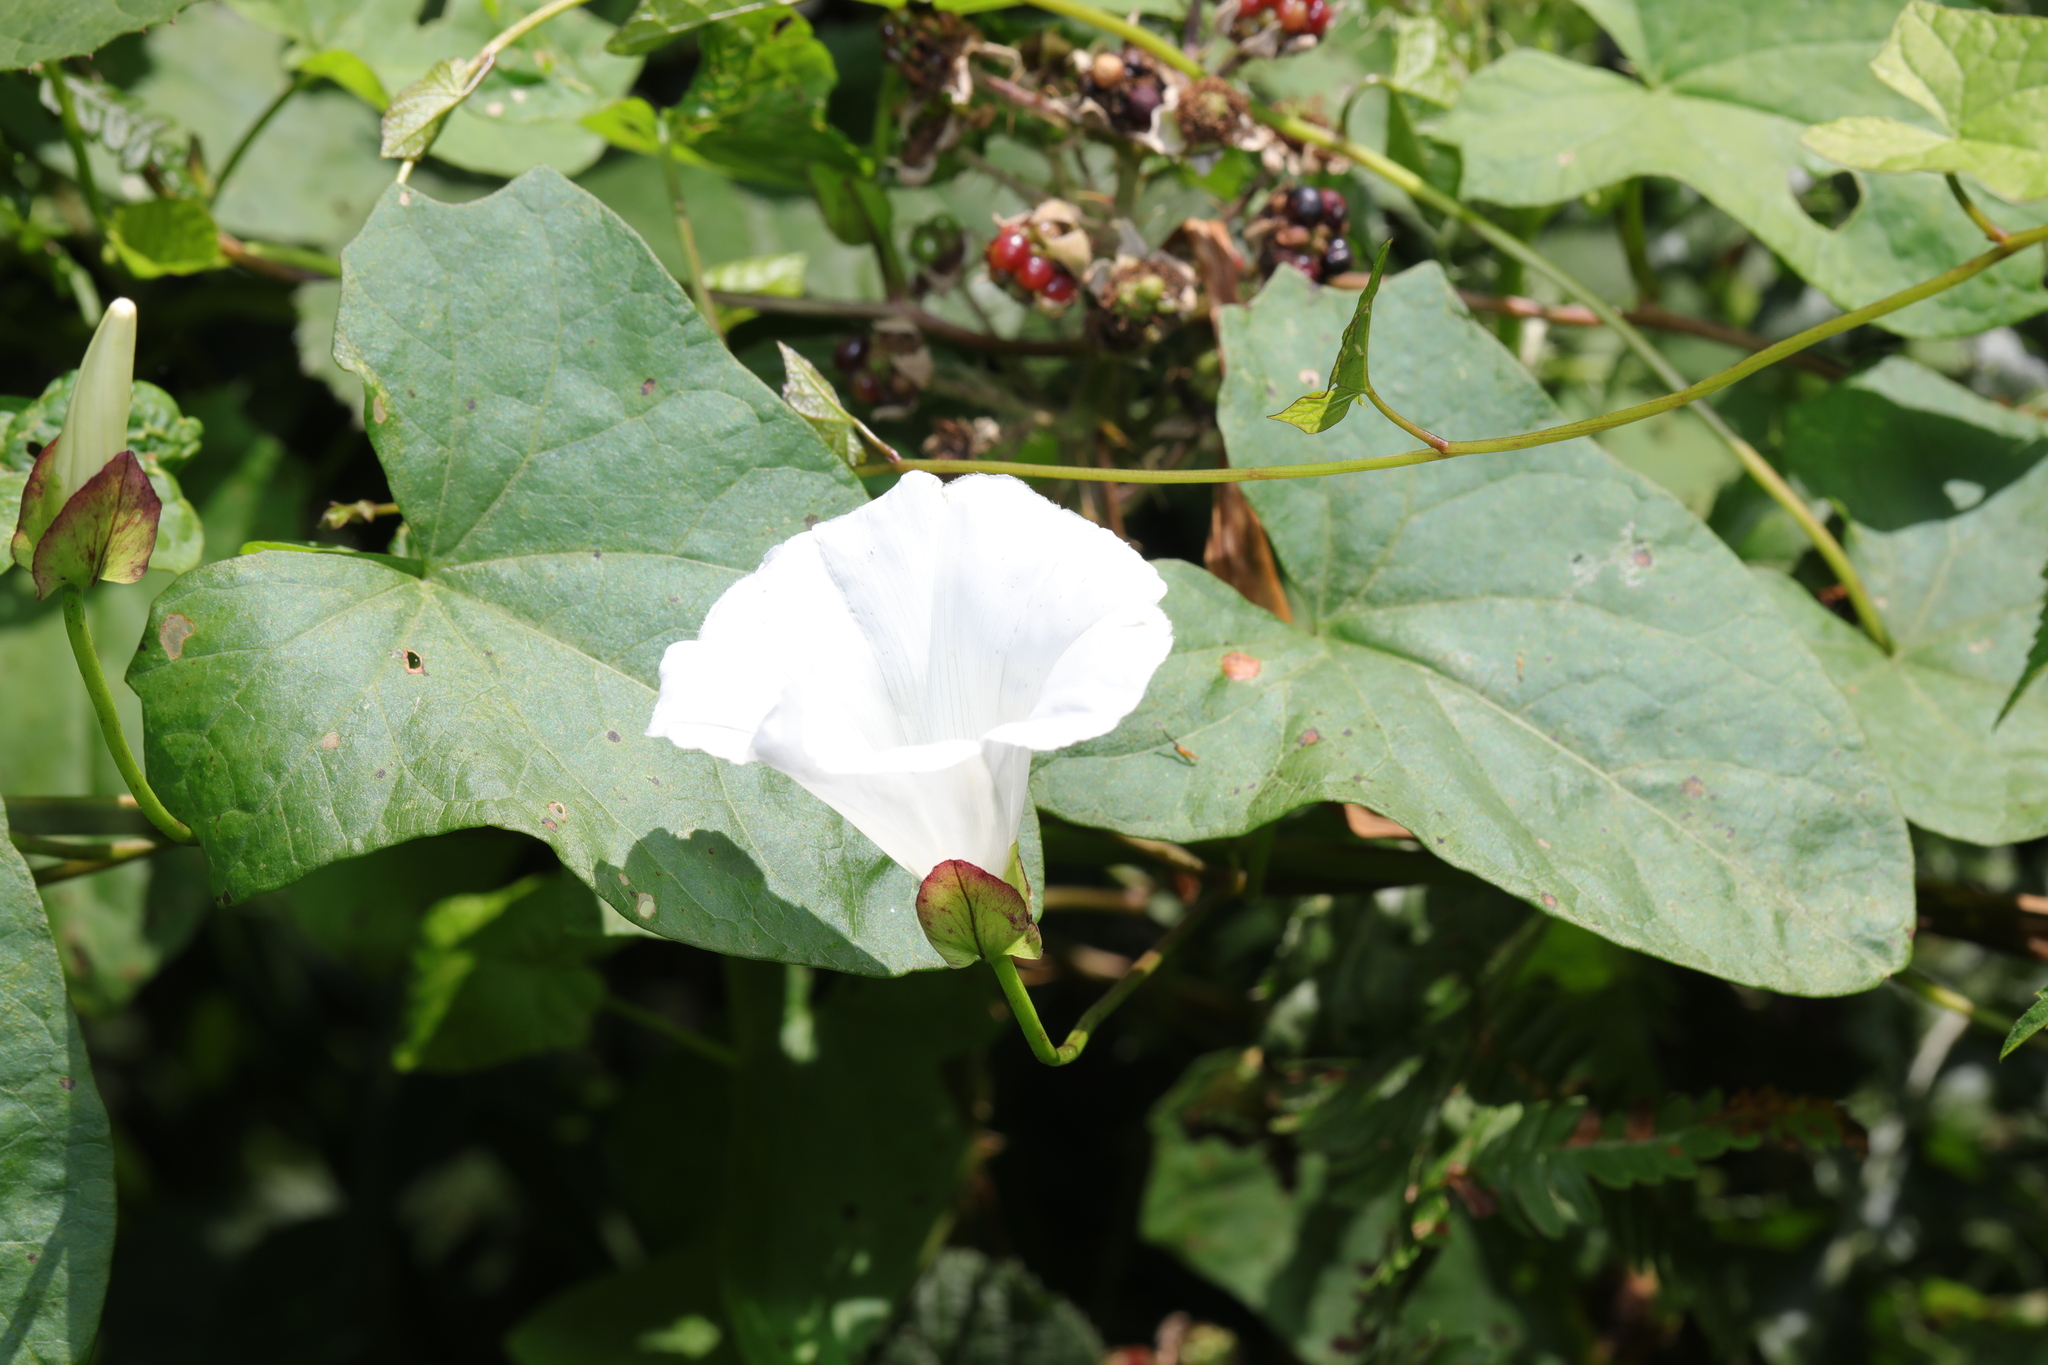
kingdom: Plantae
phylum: Tracheophyta
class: Magnoliopsida
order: Solanales
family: Convolvulaceae
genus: Calystegia
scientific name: Calystegia sepium
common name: Hedge bindweed
